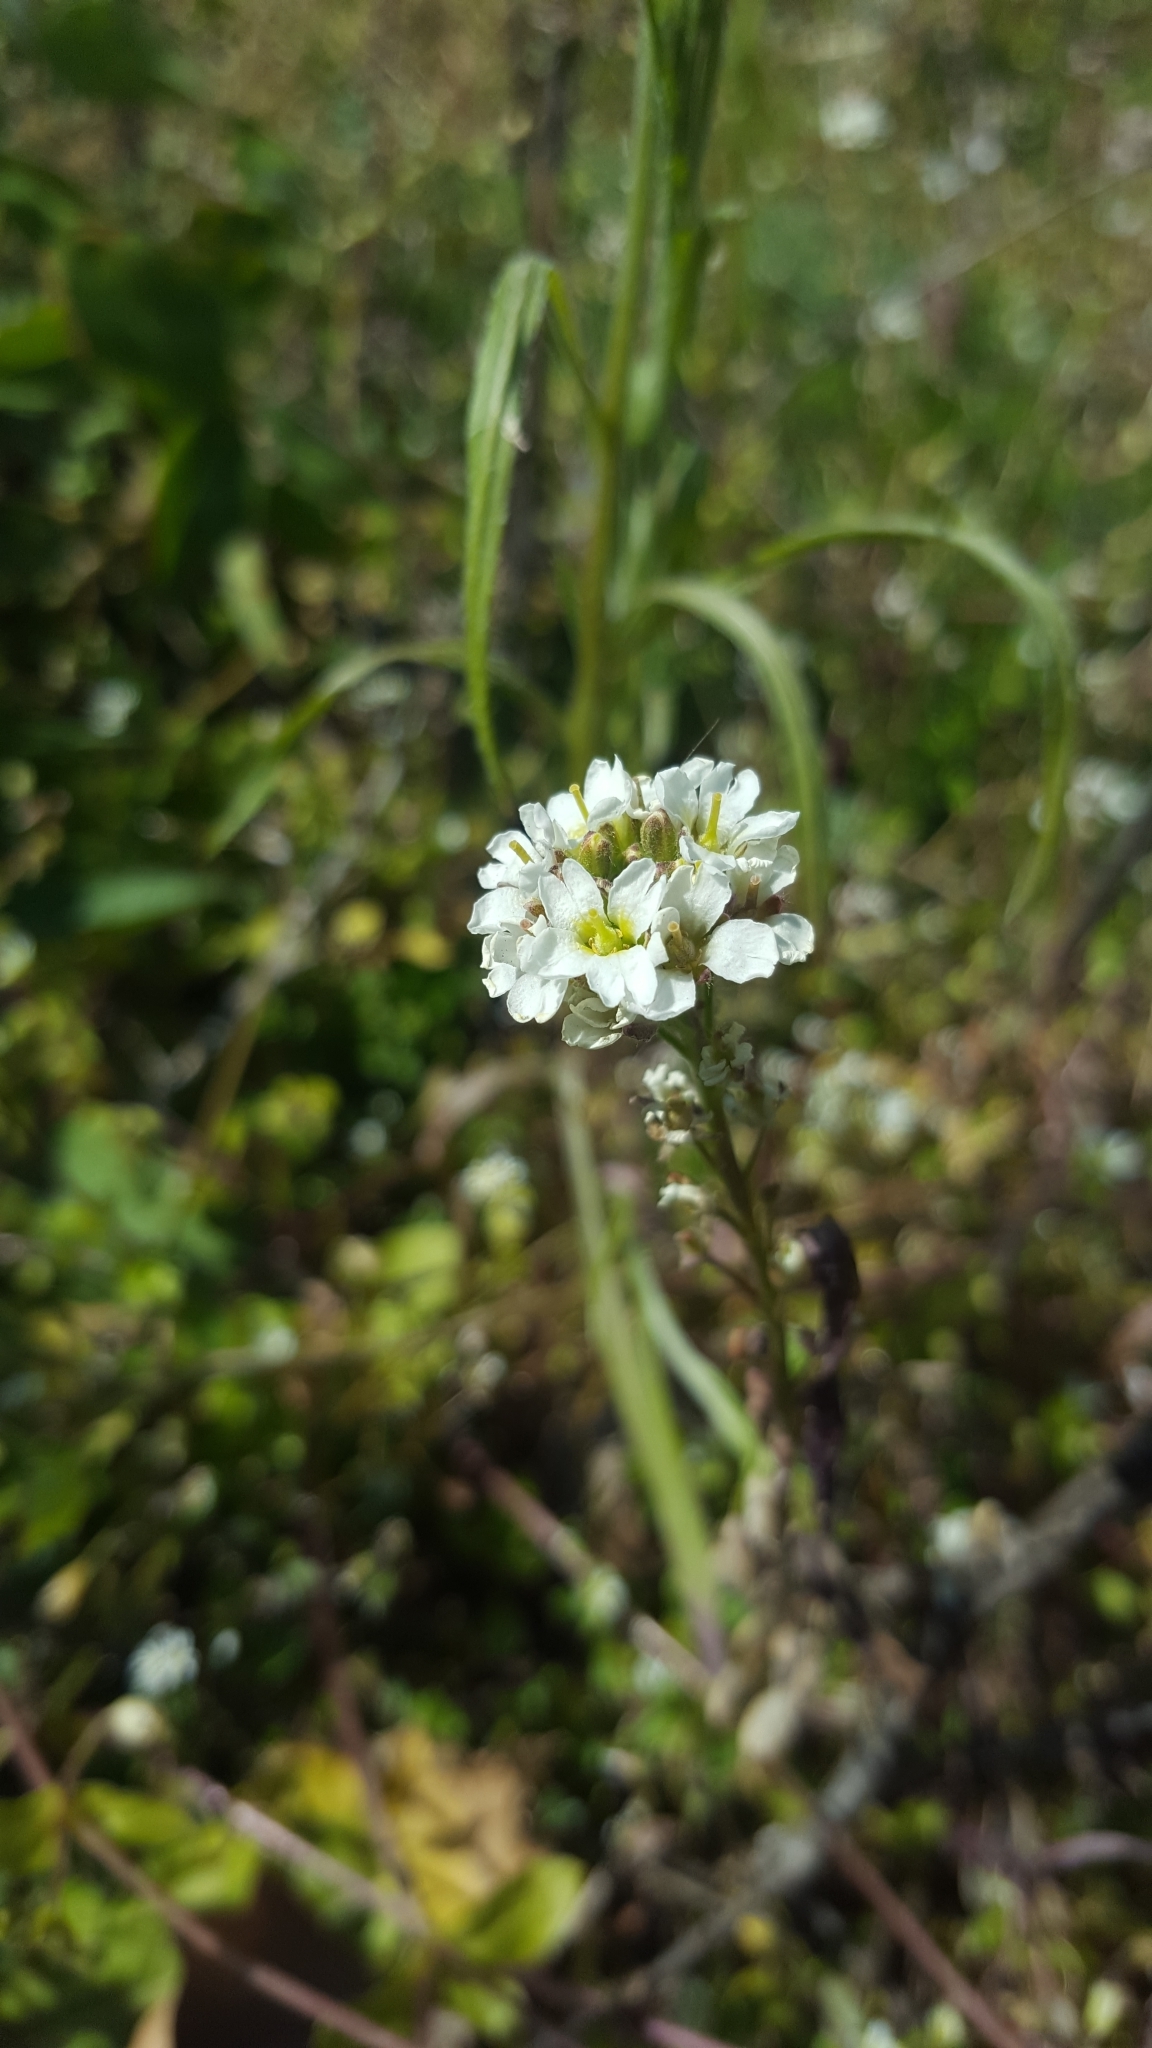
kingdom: Plantae
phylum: Tracheophyta
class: Magnoliopsida
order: Brassicales
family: Brassicaceae
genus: Berteroa
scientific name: Berteroa incana
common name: Hoary alison
